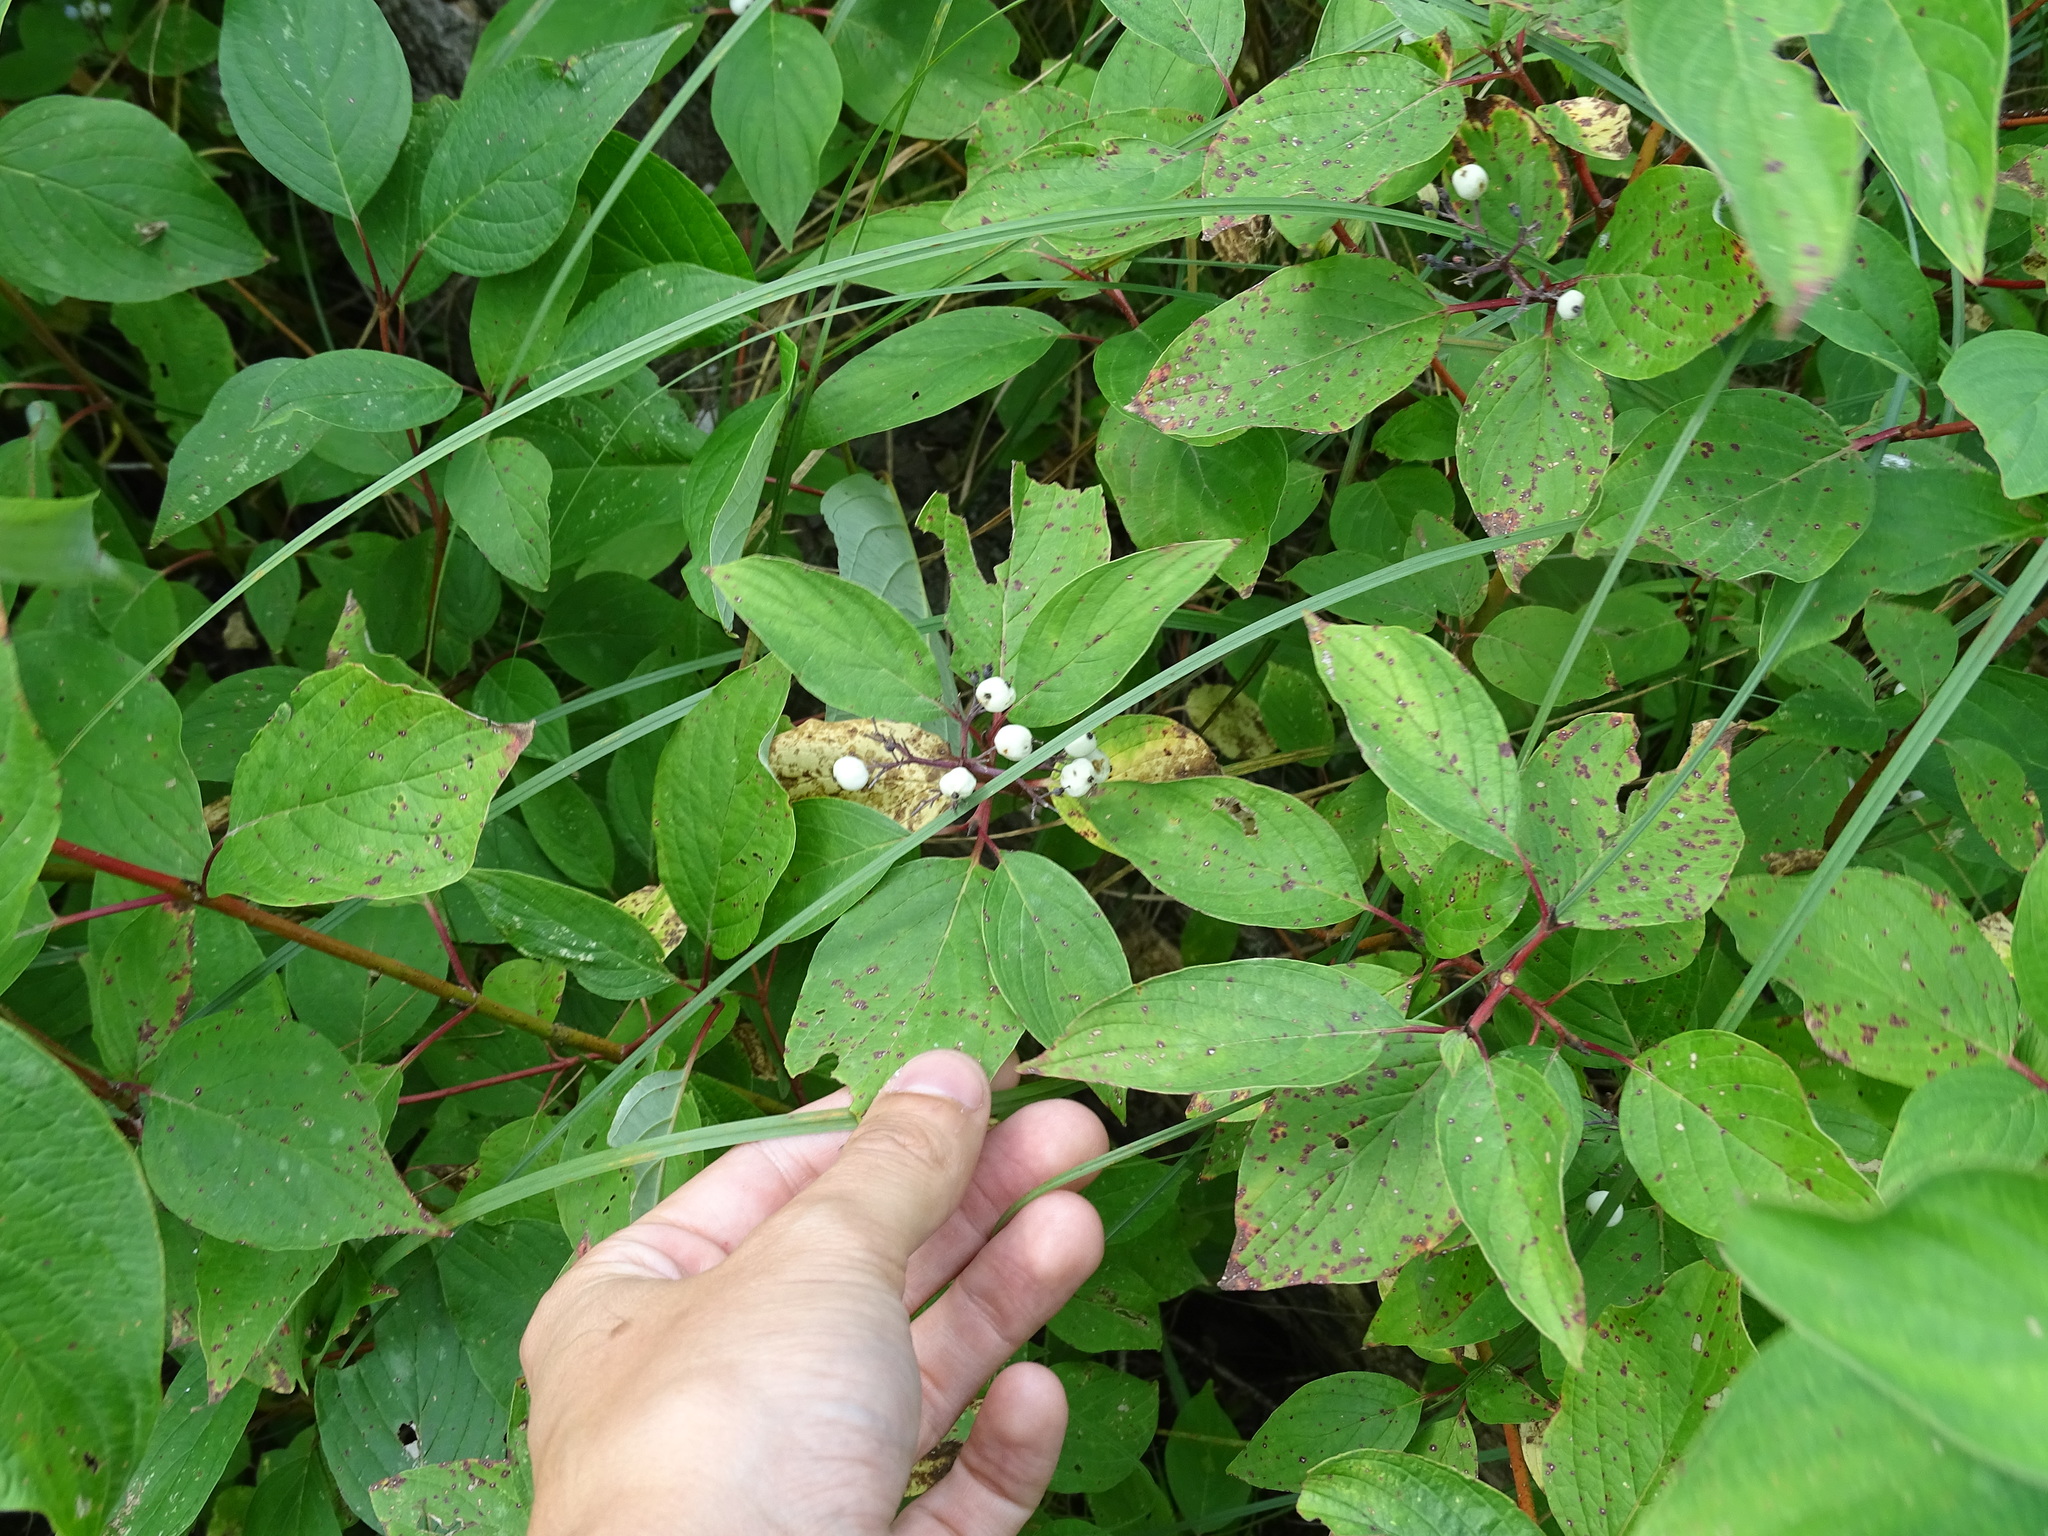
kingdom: Plantae
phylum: Tracheophyta
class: Magnoliopsida
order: Cornales
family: Cornaceae
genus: Cornus
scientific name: Cornus sericea
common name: Red-osier dogwood
